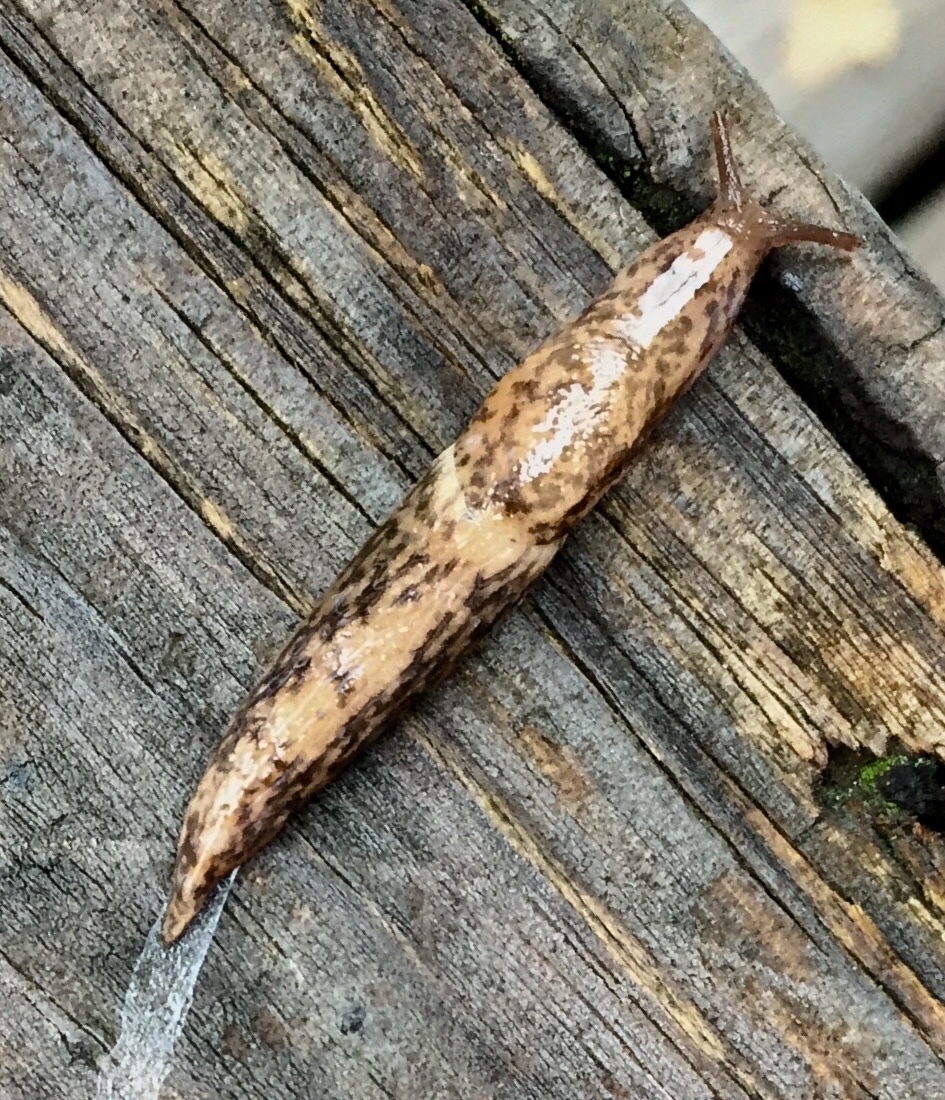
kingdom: Animalia
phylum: Mollusca
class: Gastropoda
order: Stylommatophora
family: Agriolimacidae
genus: Deroceras
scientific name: Deroceras reticulatum
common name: Gray field slug
